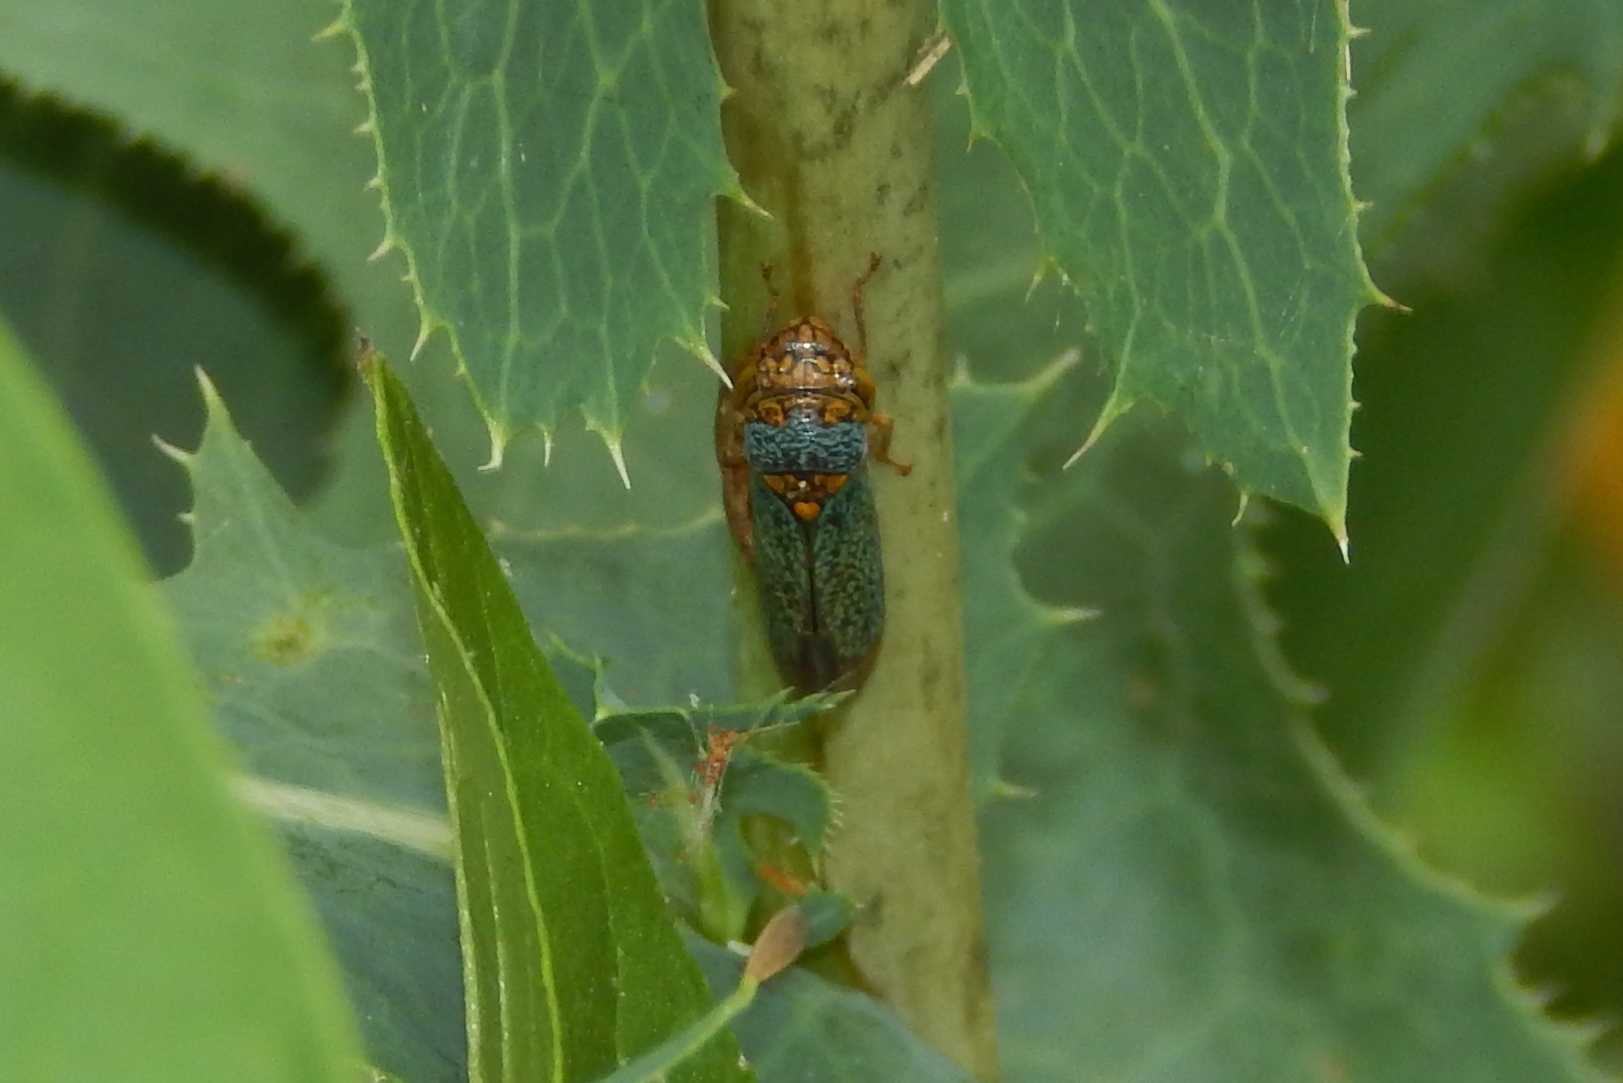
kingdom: Animalia
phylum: Arthropoda
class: Insecta
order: Hemiptera
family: Cicadellidae
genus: Oncometopia
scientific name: Oncometopia orbona
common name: Broad-headed sharpshooter
